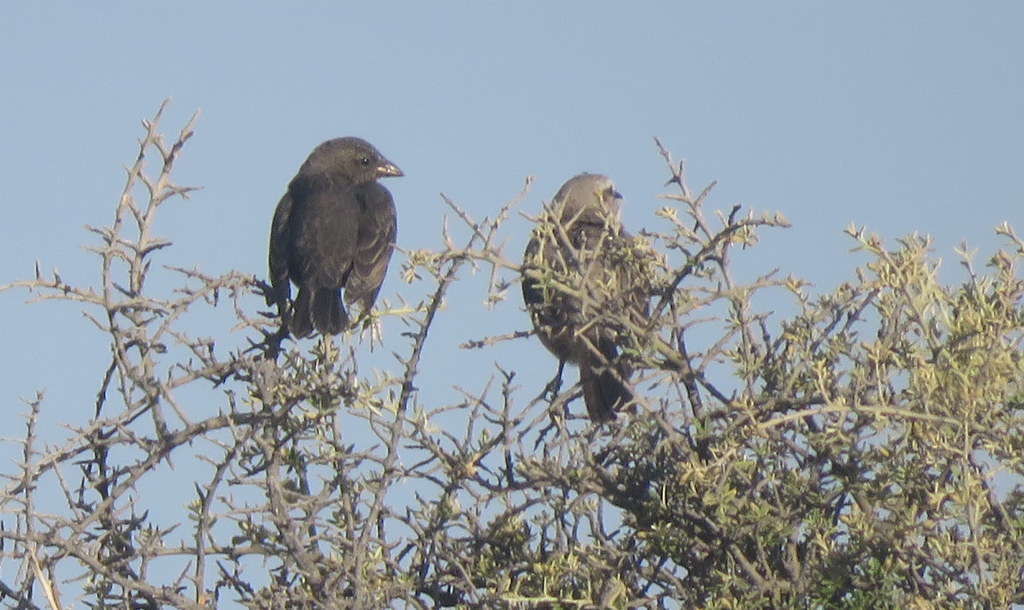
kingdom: Animalia
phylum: Chordata
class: Aves
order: Passeriformes
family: Icteridae
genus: Molothrus
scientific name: Molothrus bonariensis
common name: Shiny cowbird
